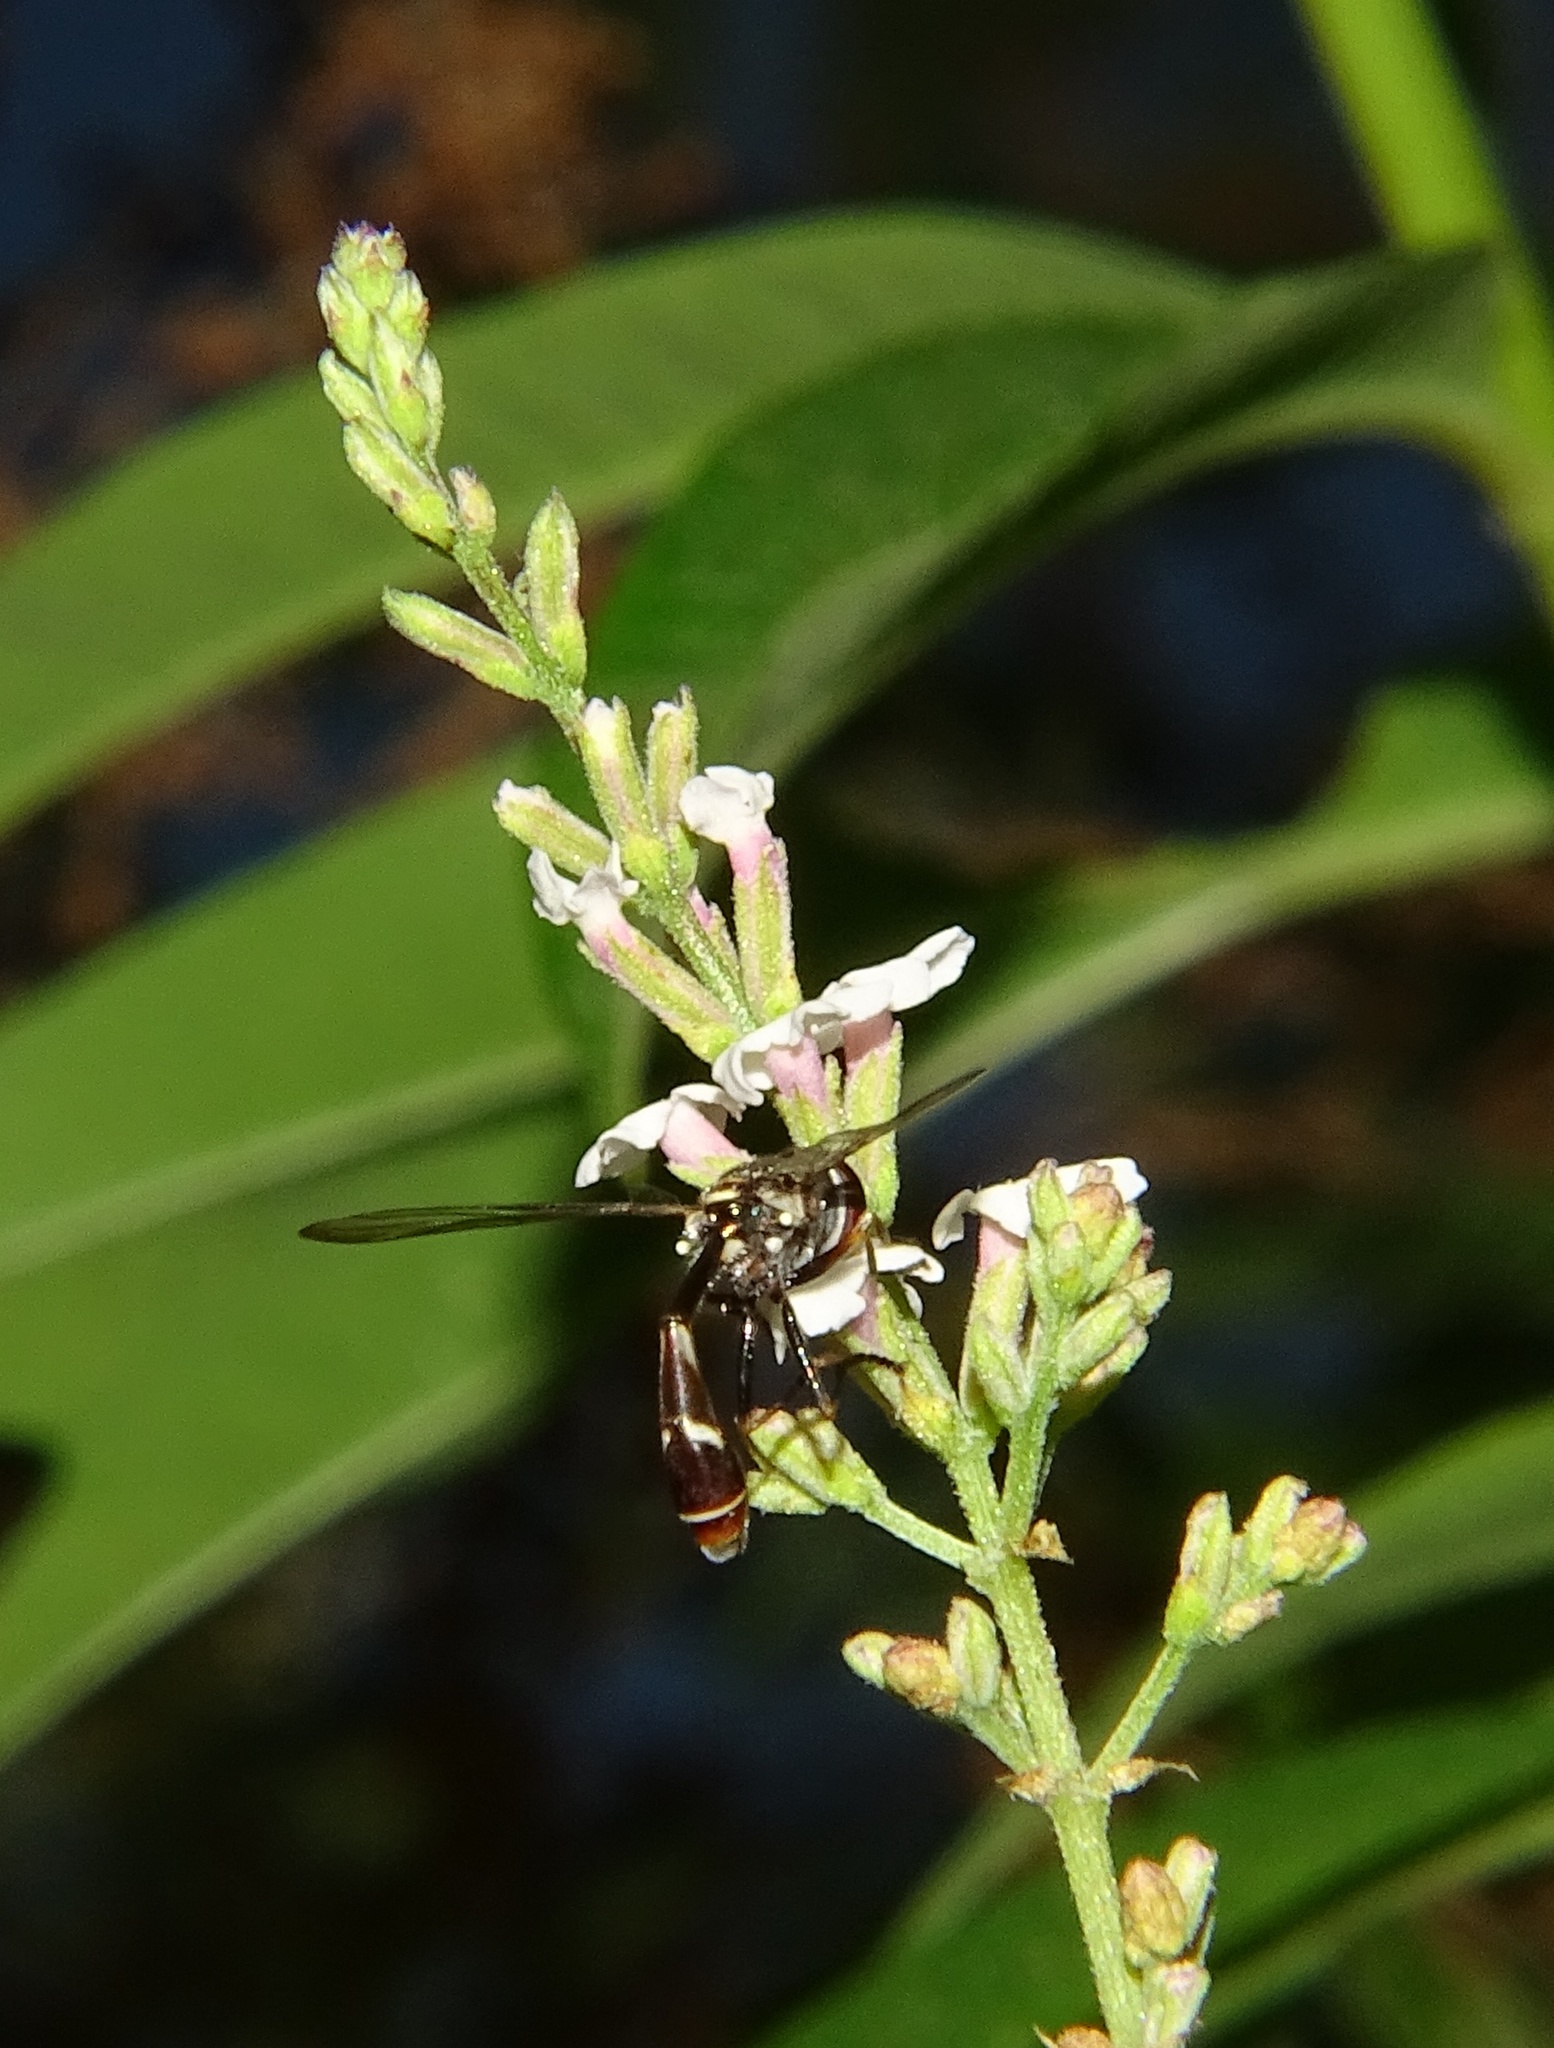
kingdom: Animalia
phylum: Arthropoda
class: Insecta
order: Diptera
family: Syrphidae
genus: Dioprosopa
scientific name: Dioprosopa clavatus
